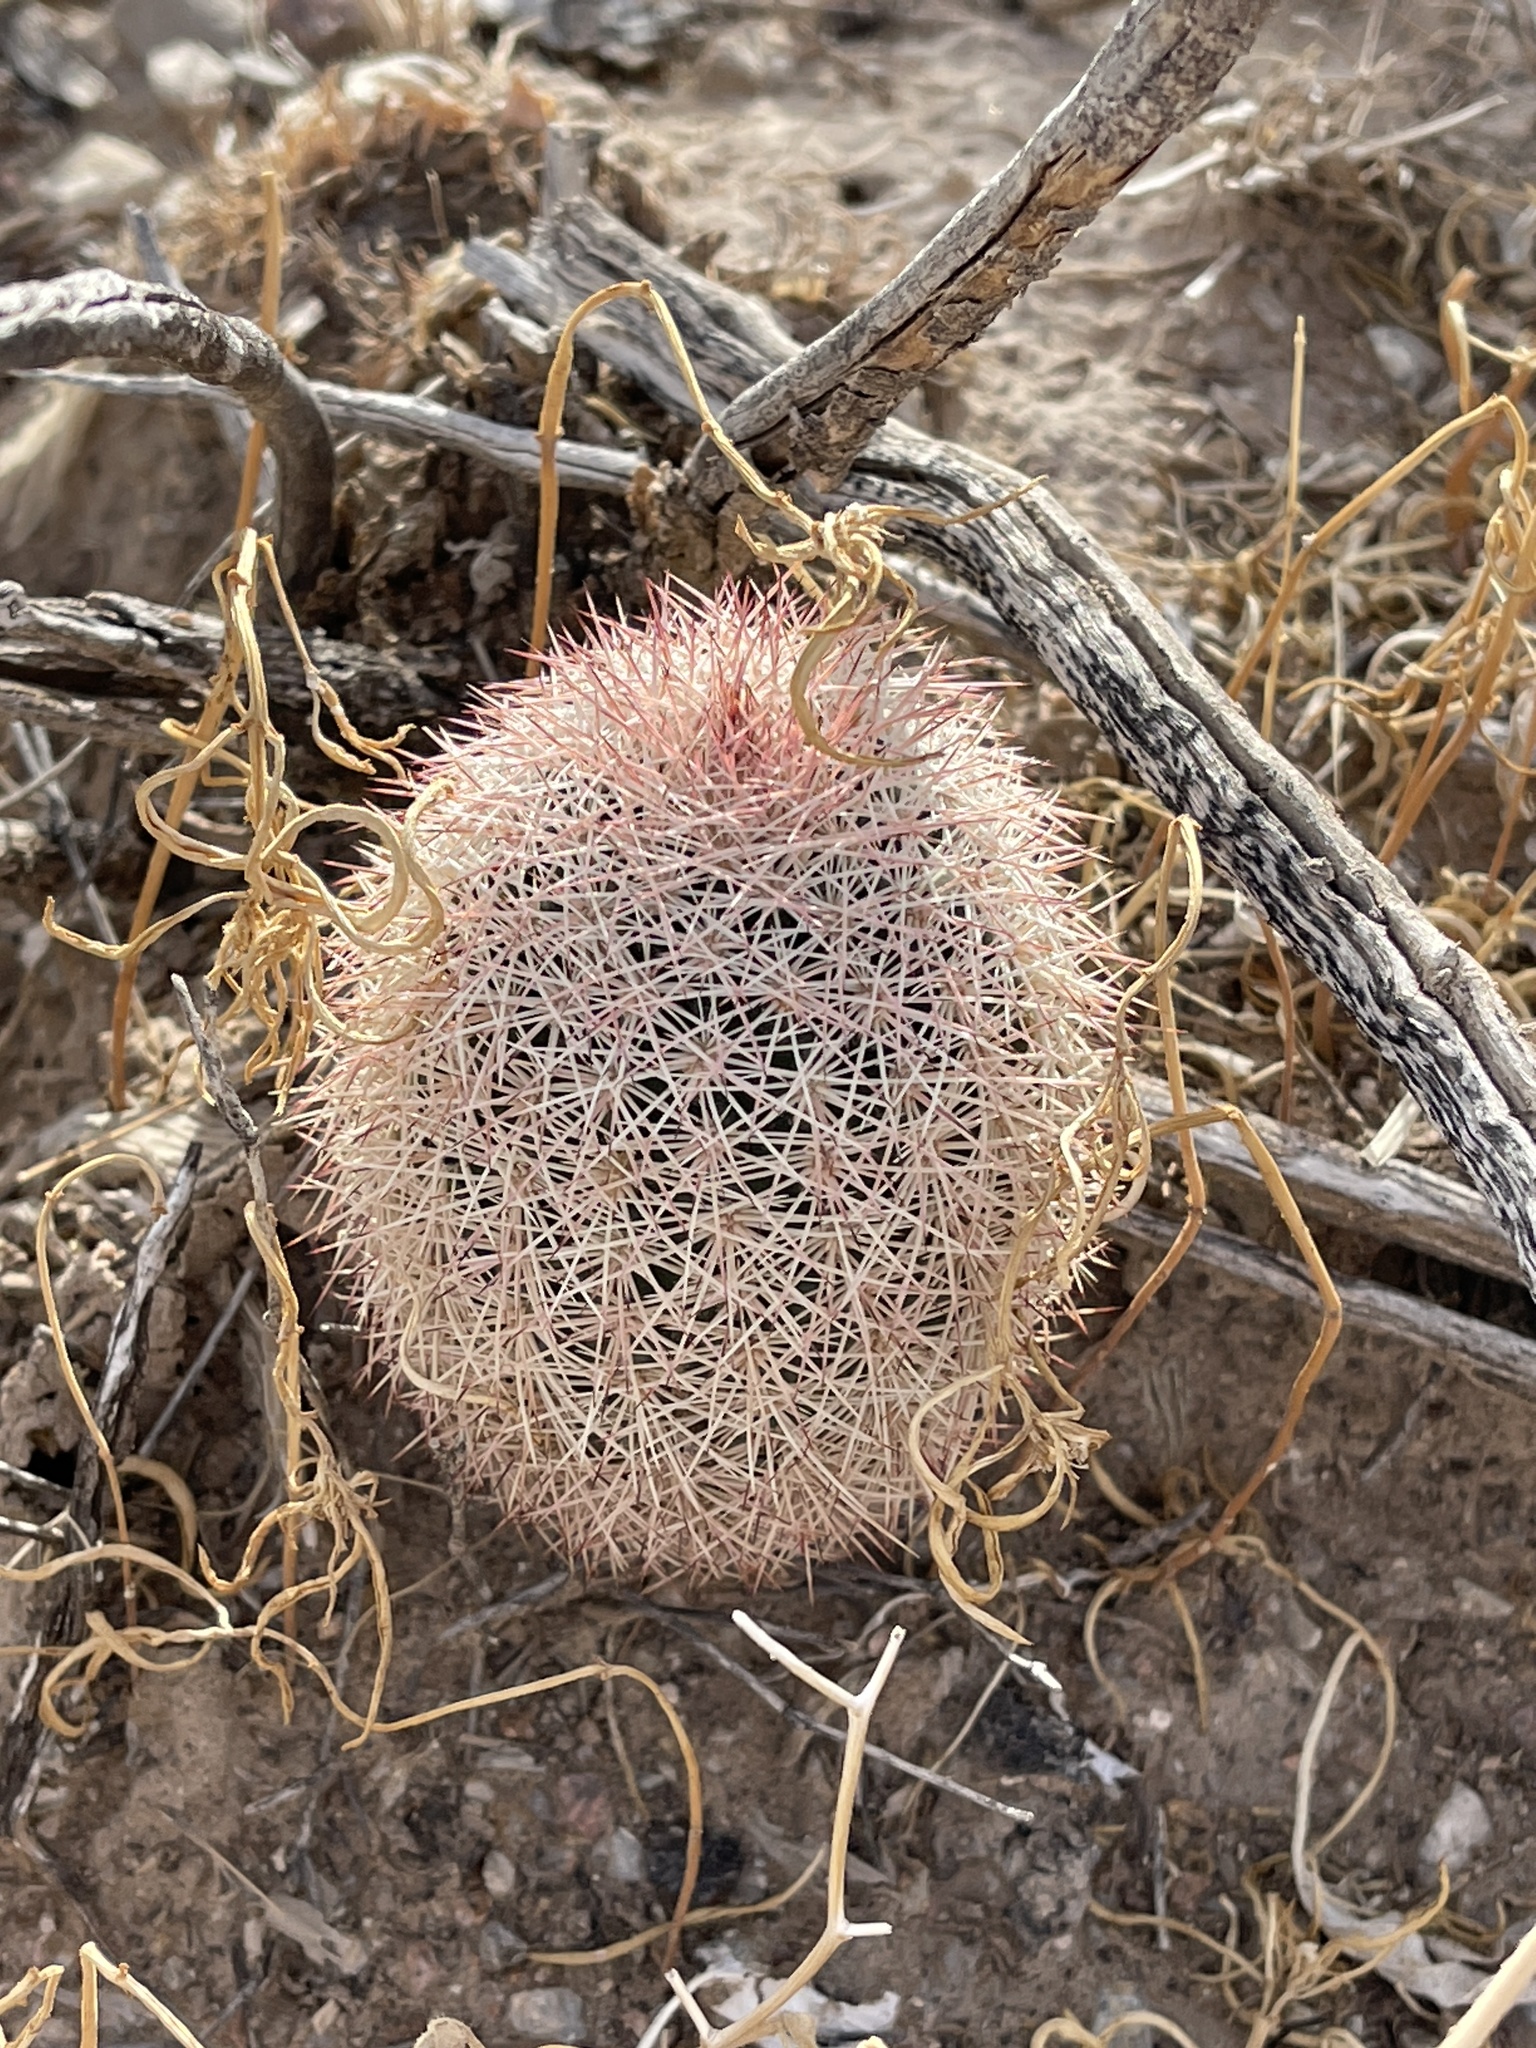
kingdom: Plantae
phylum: Tracheophyta
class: Magnoliopsida
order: Caryophyllales
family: Cactaceae
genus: Echinocereus
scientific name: Echinocereus dasyacanthus
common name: Spiny hedgehog cactus
